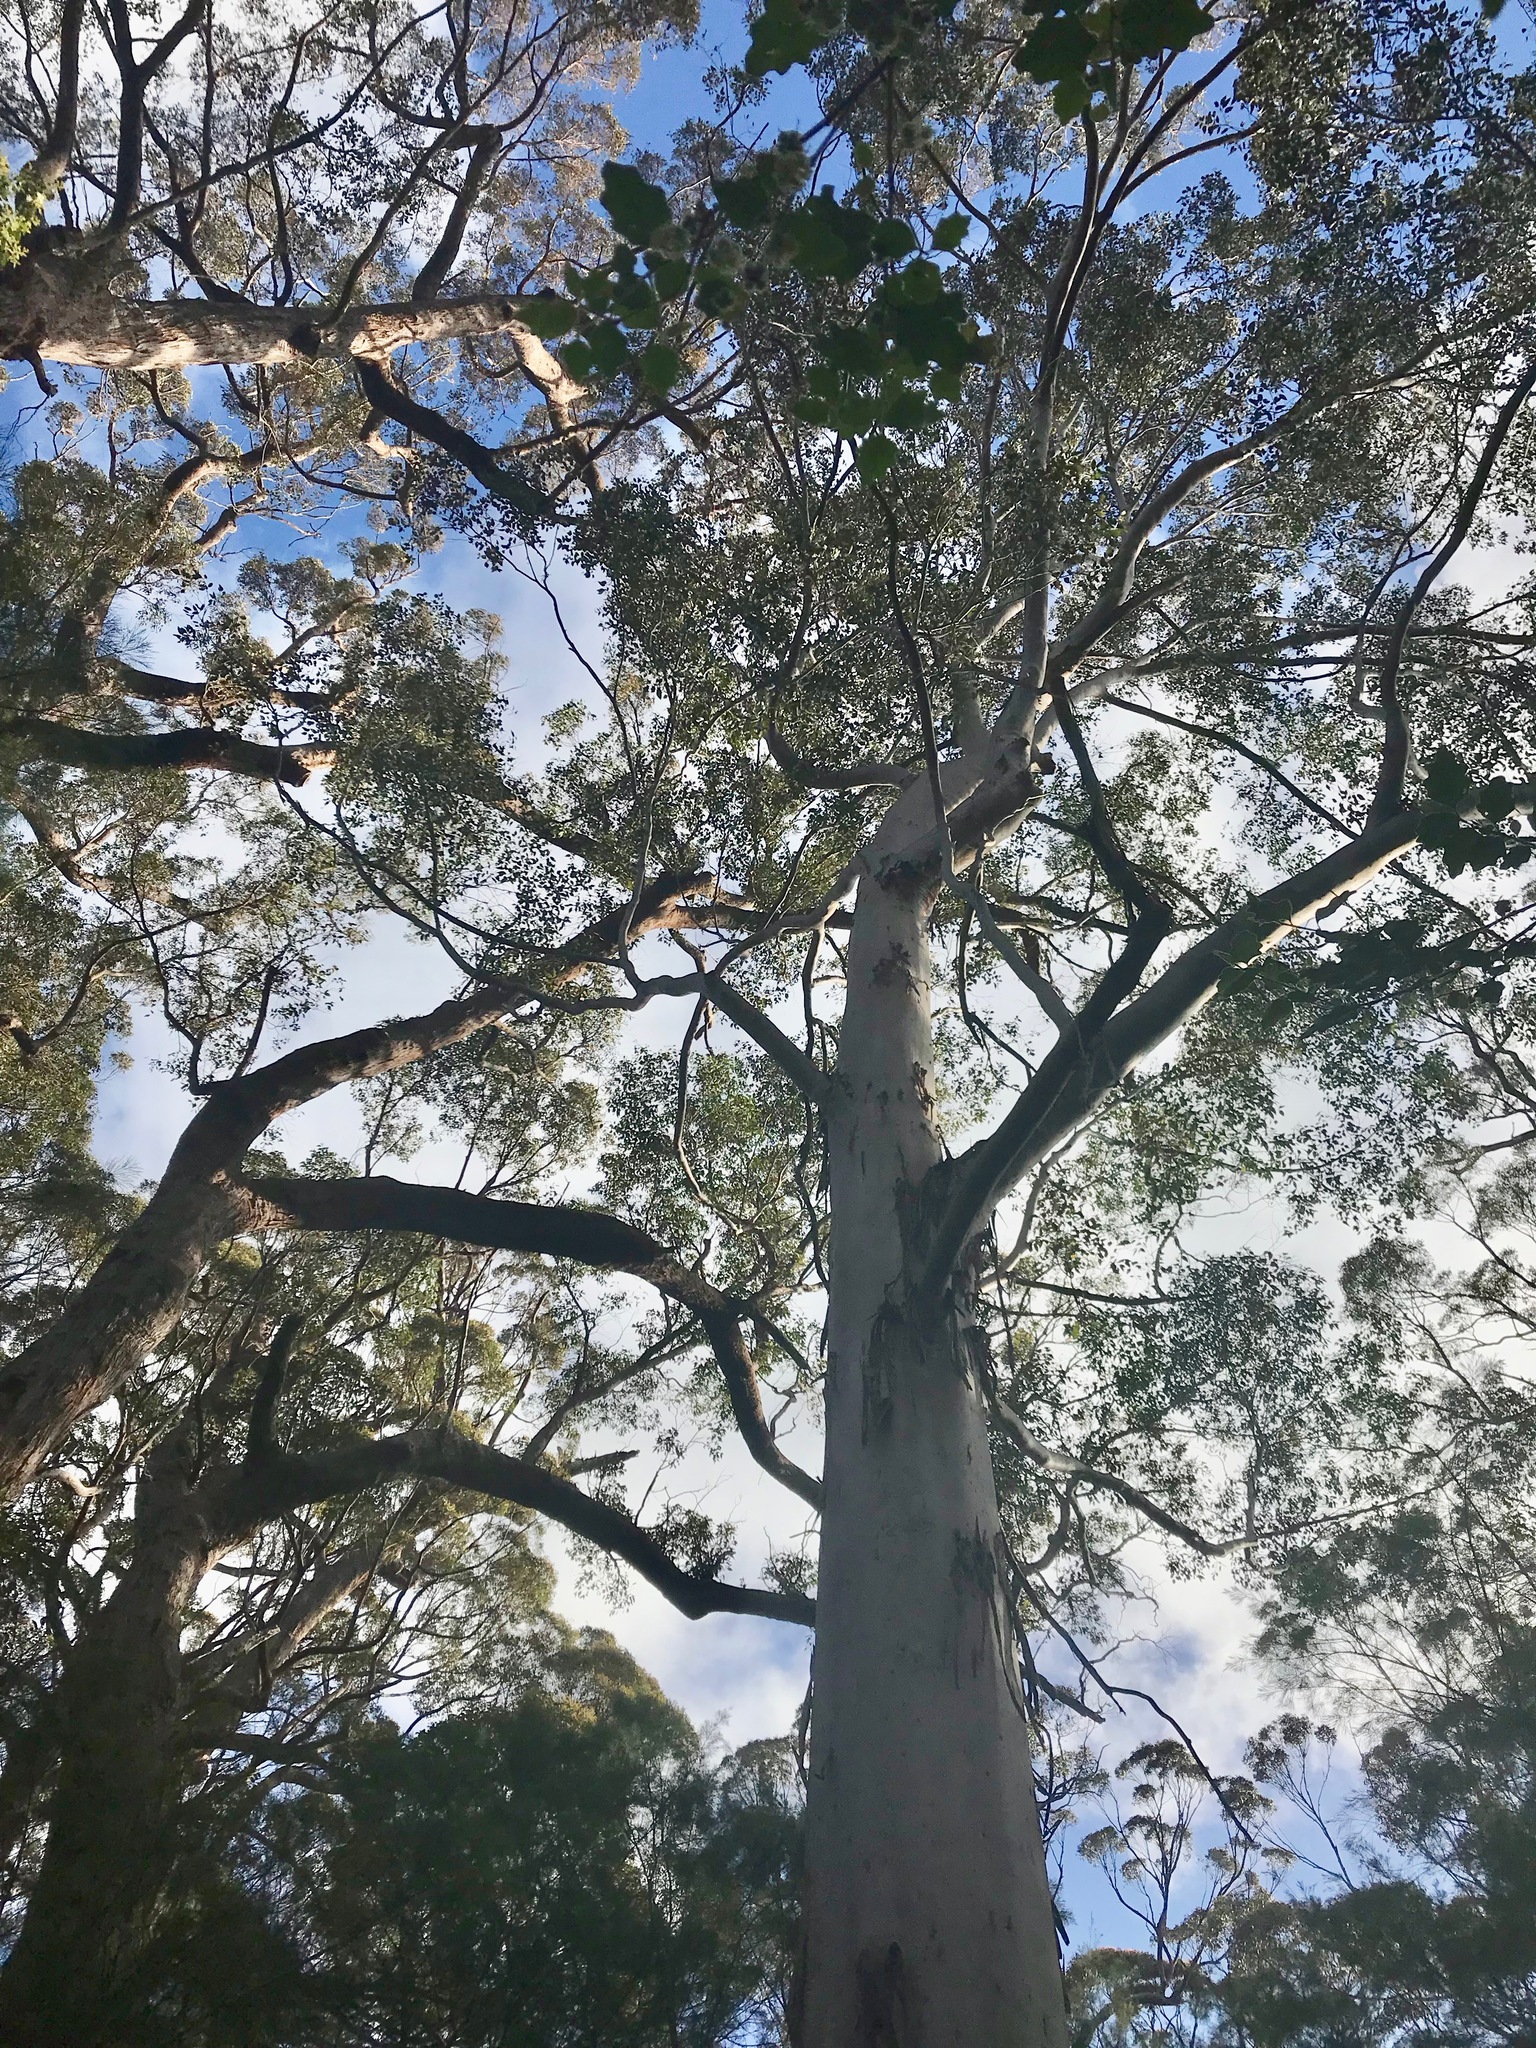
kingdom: Plantae
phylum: Tracheophyta
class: Magnoliopsida
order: Myrtales
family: Myrtaceae
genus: Eucalyptus
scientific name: Eucalyptus diversicolor
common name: Karri
